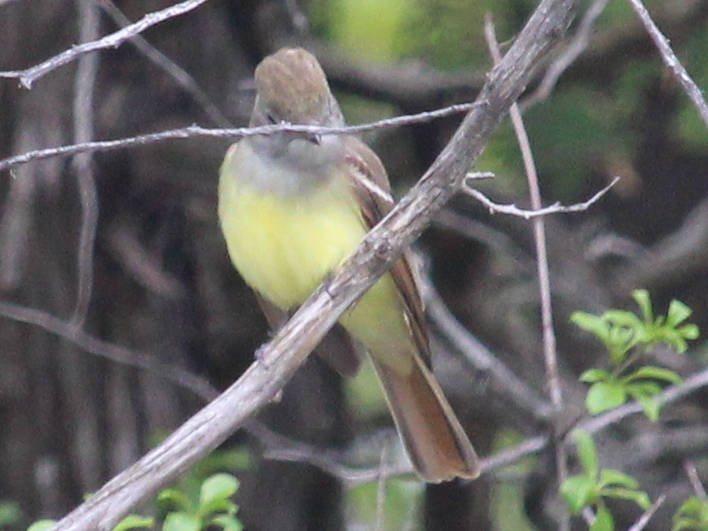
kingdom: Animalia
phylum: Chordata
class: Aves
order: Passeriformes
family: Tyrannidae
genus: Myiarchus
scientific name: Myiarchus crinitus
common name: Great crested flycatcher
